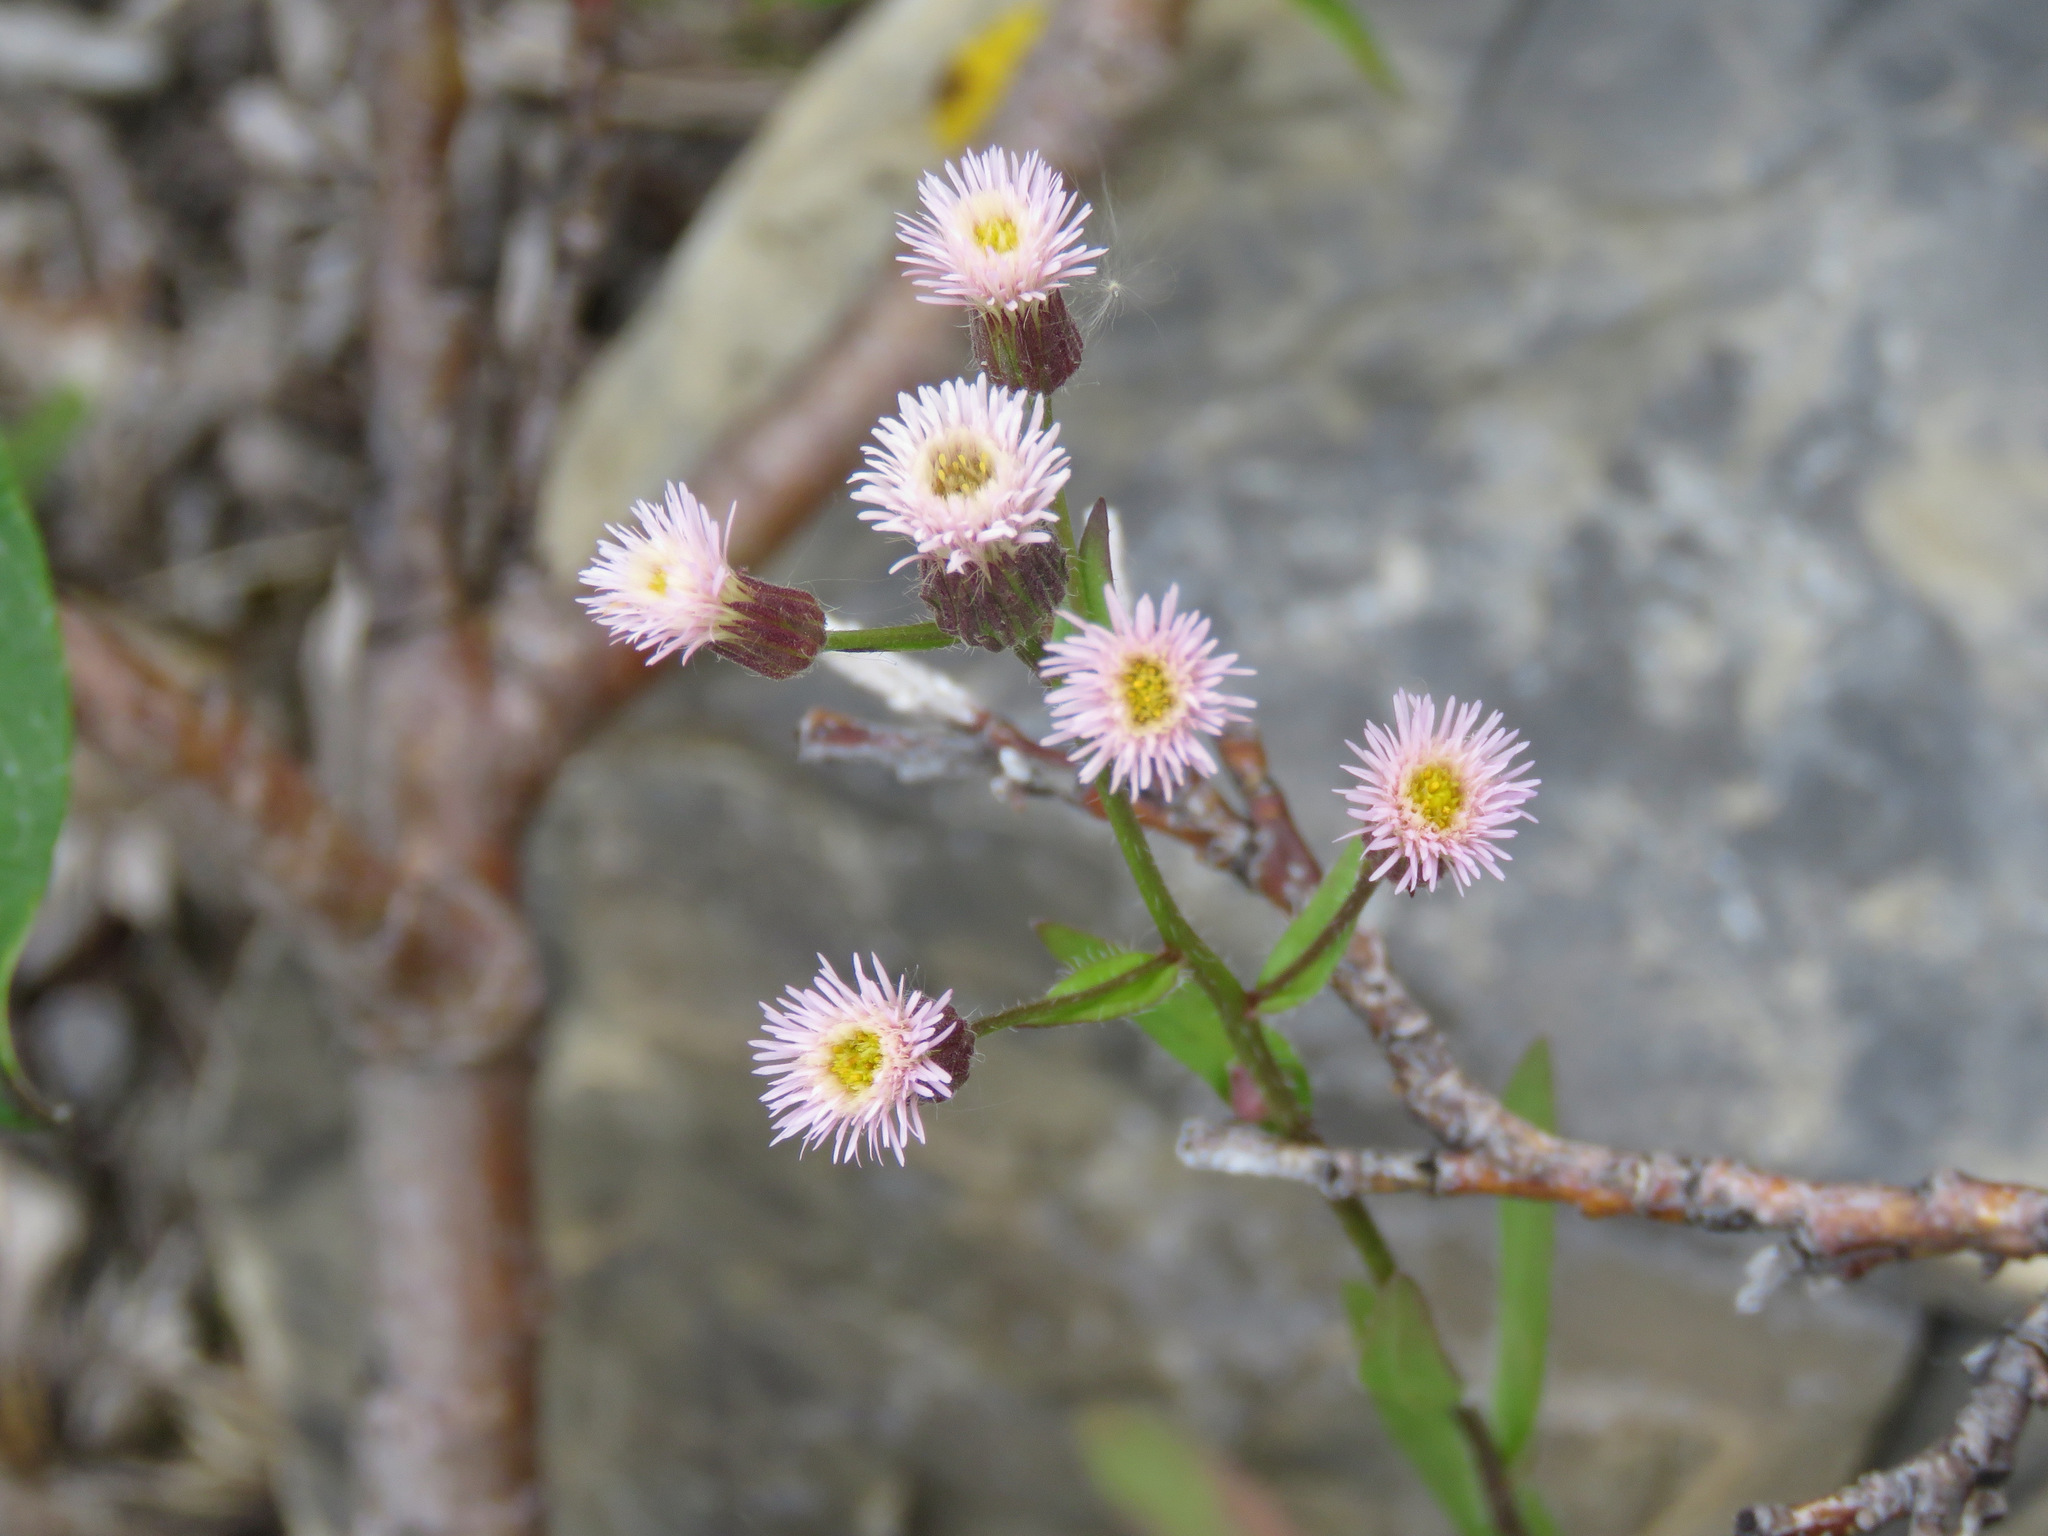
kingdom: Plantae
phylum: Tracheophyta
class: Magnoliopsida
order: Asterales
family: Asteraceae
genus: Erigeron
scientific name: Erigeron acris
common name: Blue fleabane
